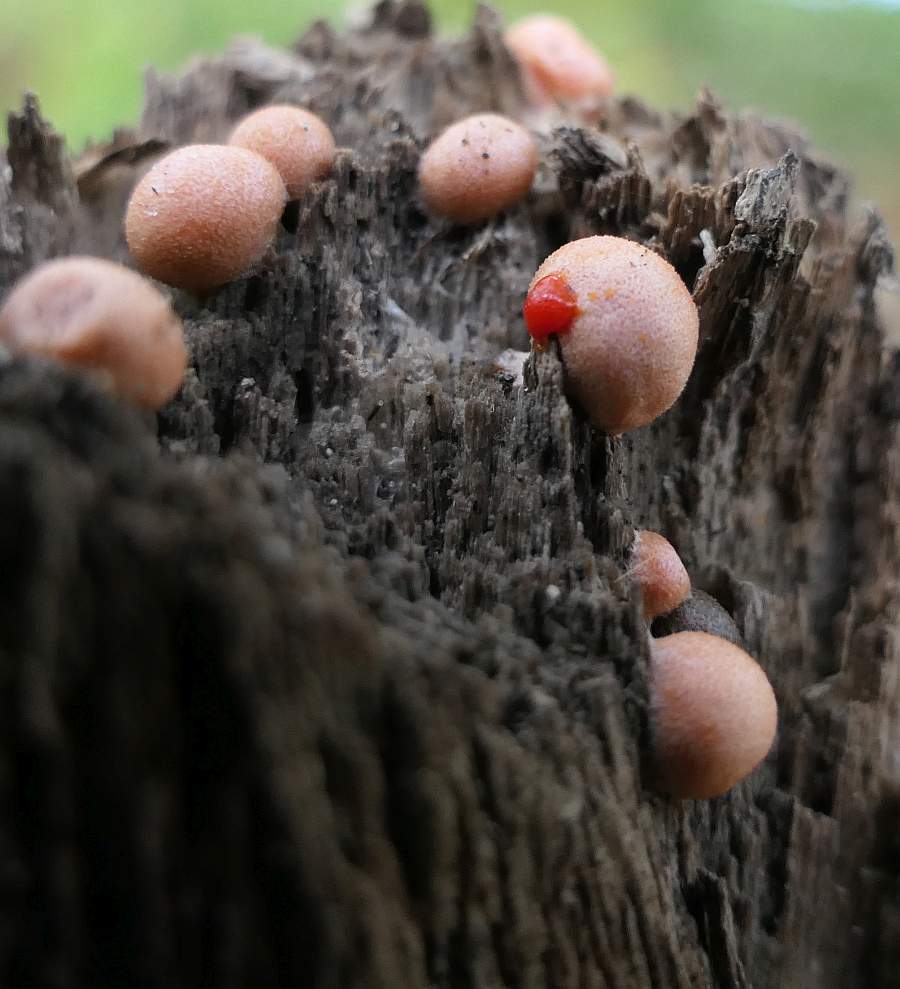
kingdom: Protozoa
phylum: Mycetozoa
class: Myxomycetes
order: Cribrariales
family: Tubiferaceae
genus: Lycogala
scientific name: Lycogala epidendrum
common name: Wolf's milk
